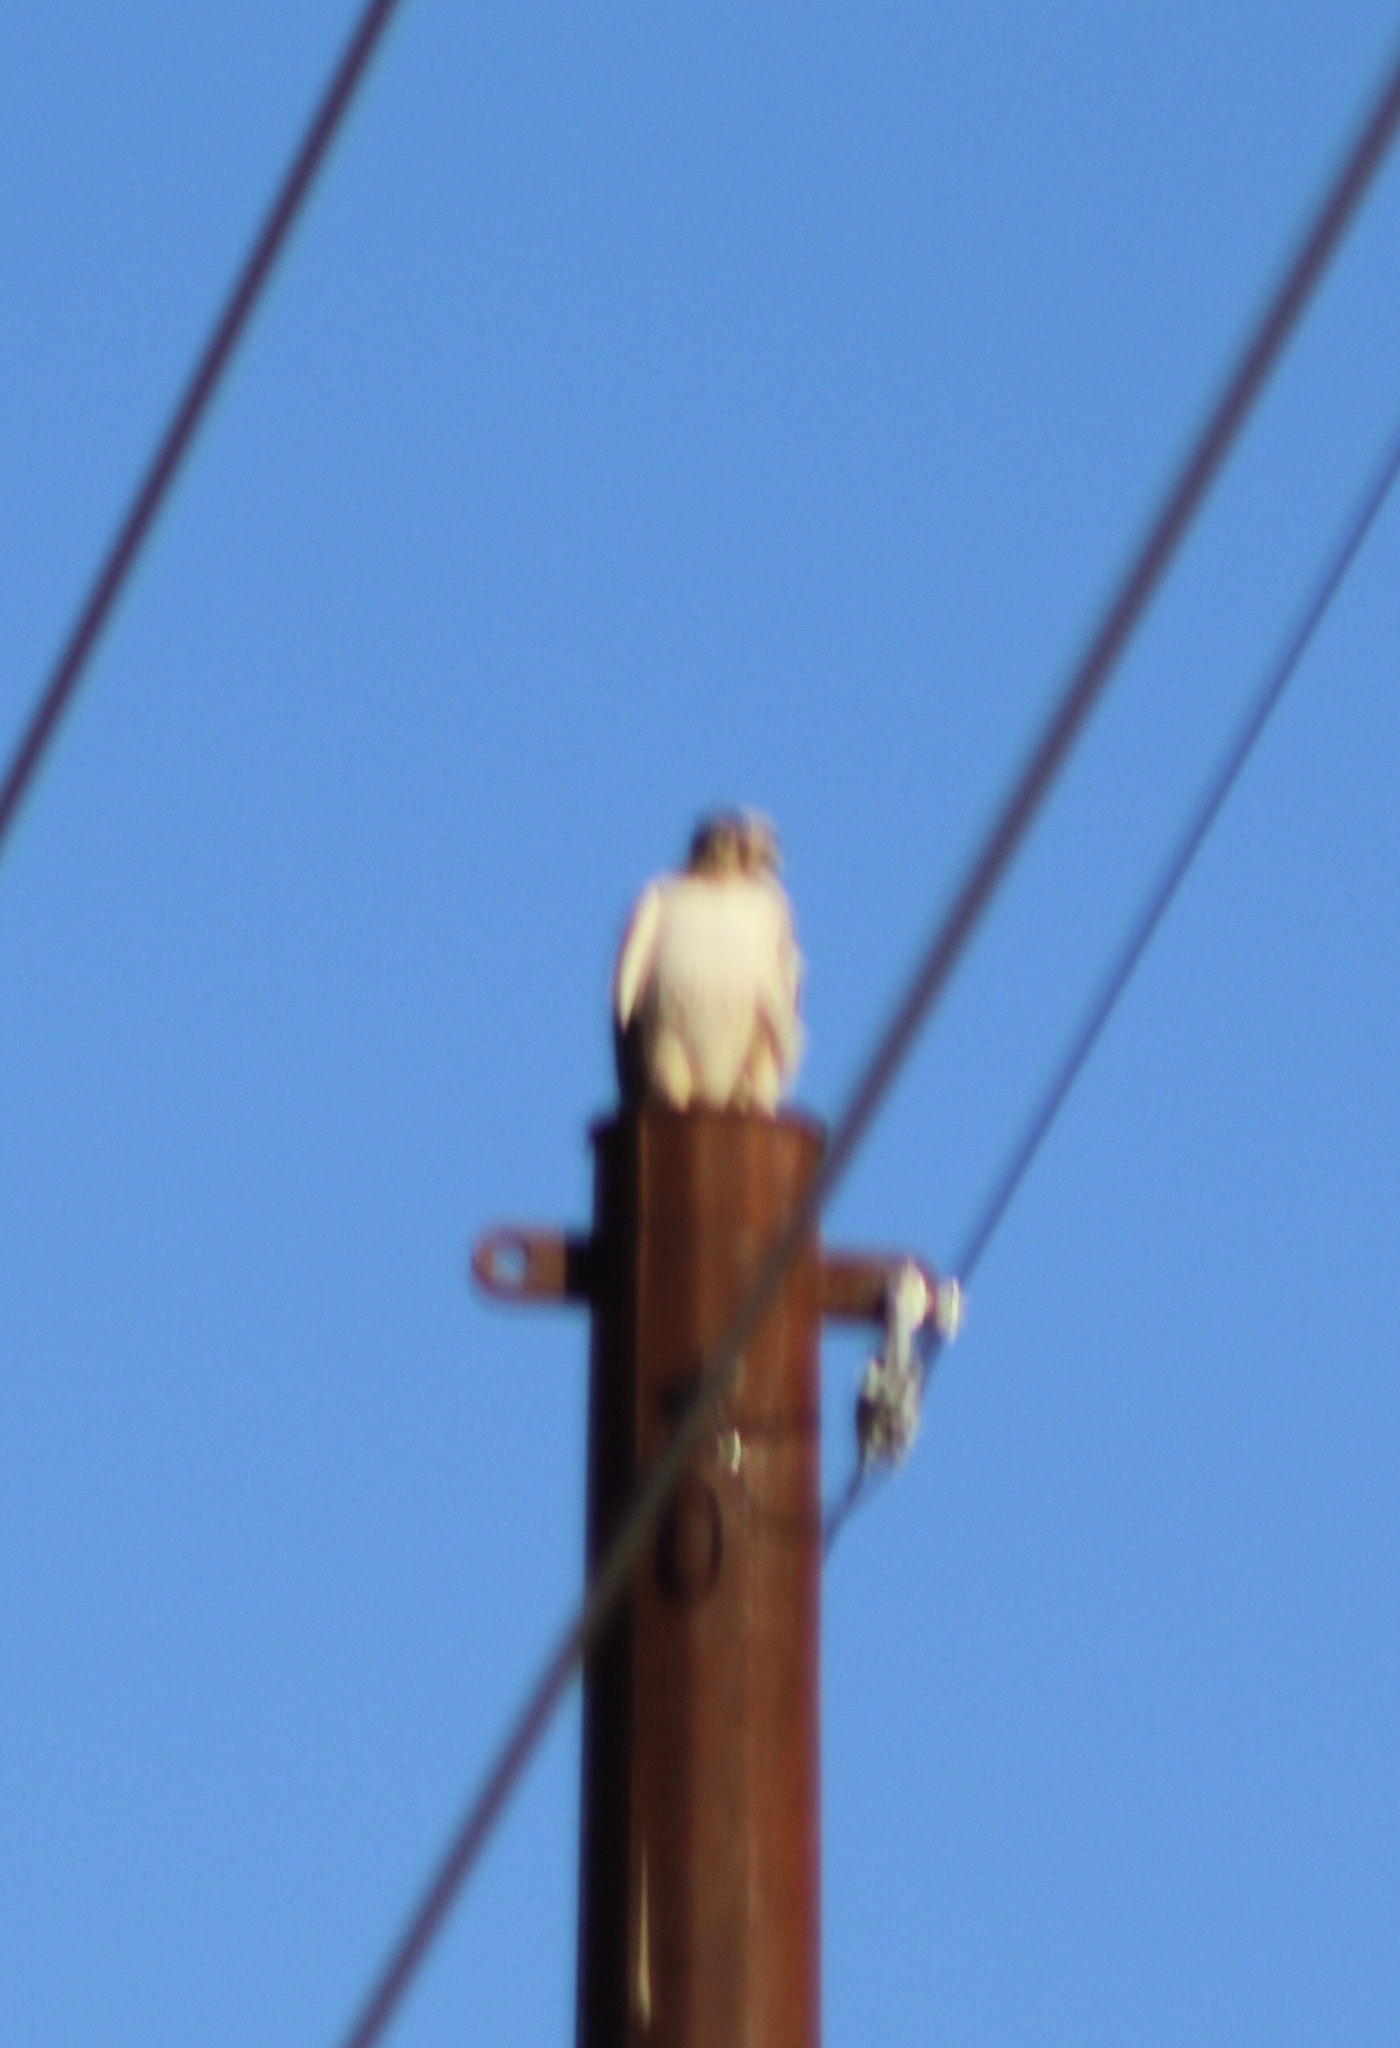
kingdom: Animalia
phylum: Chordata
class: Aves
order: Accipitriformes
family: Accipitridae
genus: Buteo
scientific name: Buteo jamaicensis
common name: Red-tailed hawk
